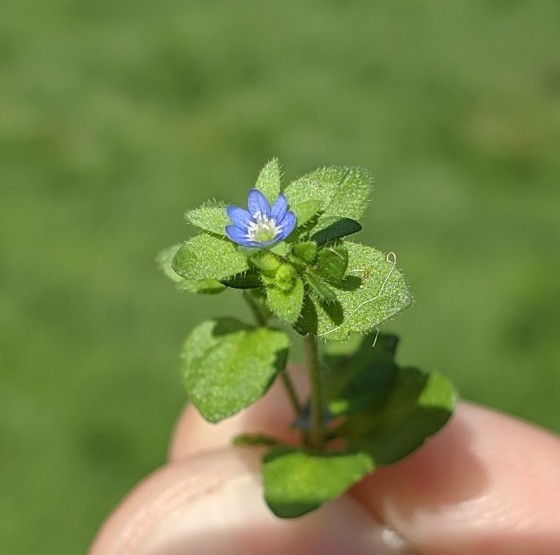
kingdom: Plantae
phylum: Tracheophyta
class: Magnoliopsida
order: Lamiales
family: Plantaginaceae
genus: Veronica
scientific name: Veronica arvensis
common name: Corn speedwell
